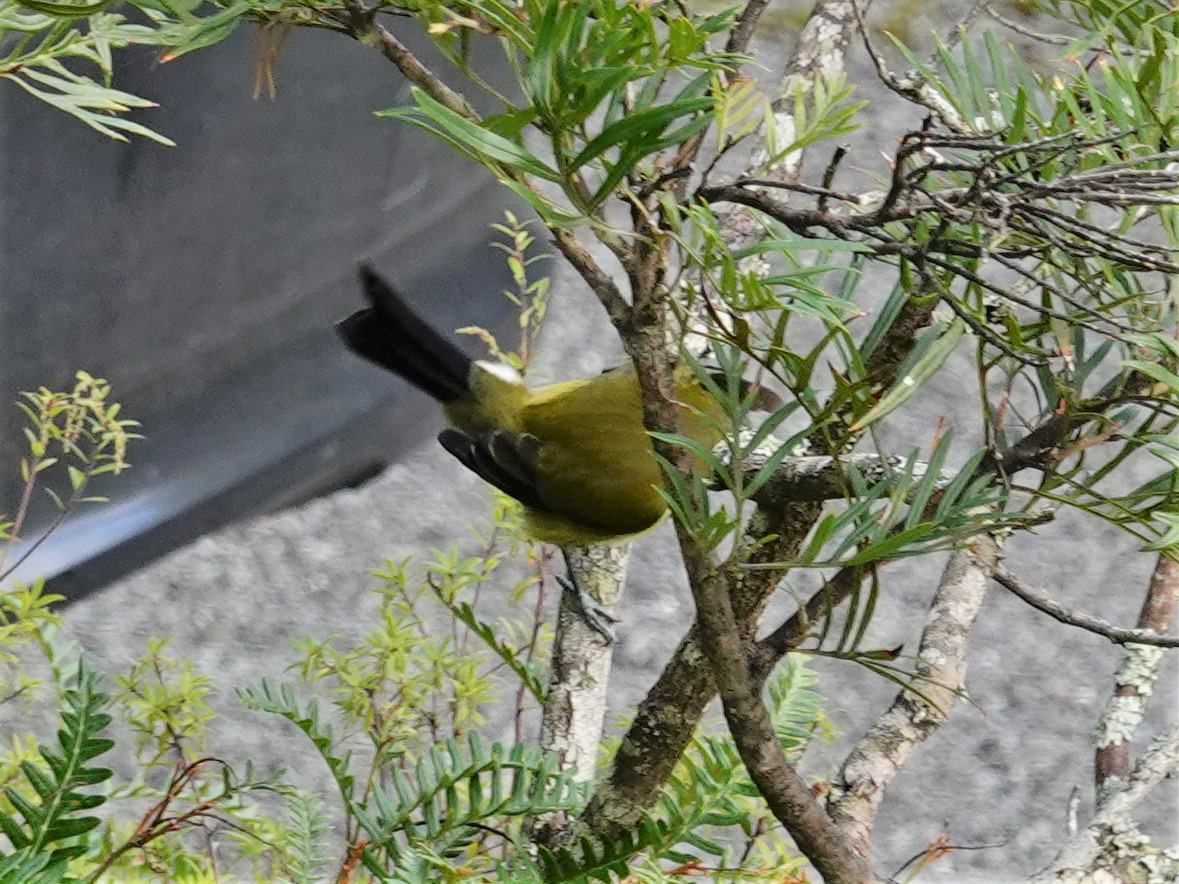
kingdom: Animalia
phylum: Chordata
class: Aves
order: Passeriformes
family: Meliphagidae
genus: Anthornis
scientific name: Anthornis melanura
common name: New zealand bellbird
